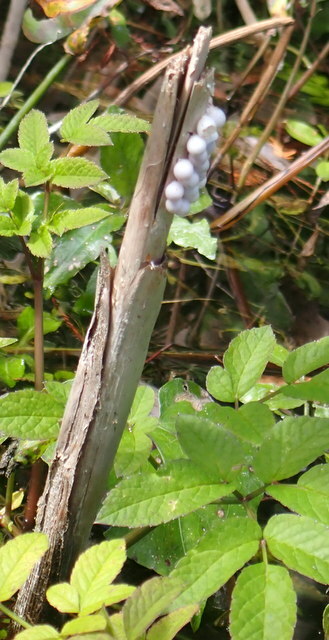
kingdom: Animalia
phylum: Mollusca
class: Gastropoda
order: Architaenioglossa
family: Ampullariidae
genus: Pomacea
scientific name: Pomacea paludosa
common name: Florida applesnail
